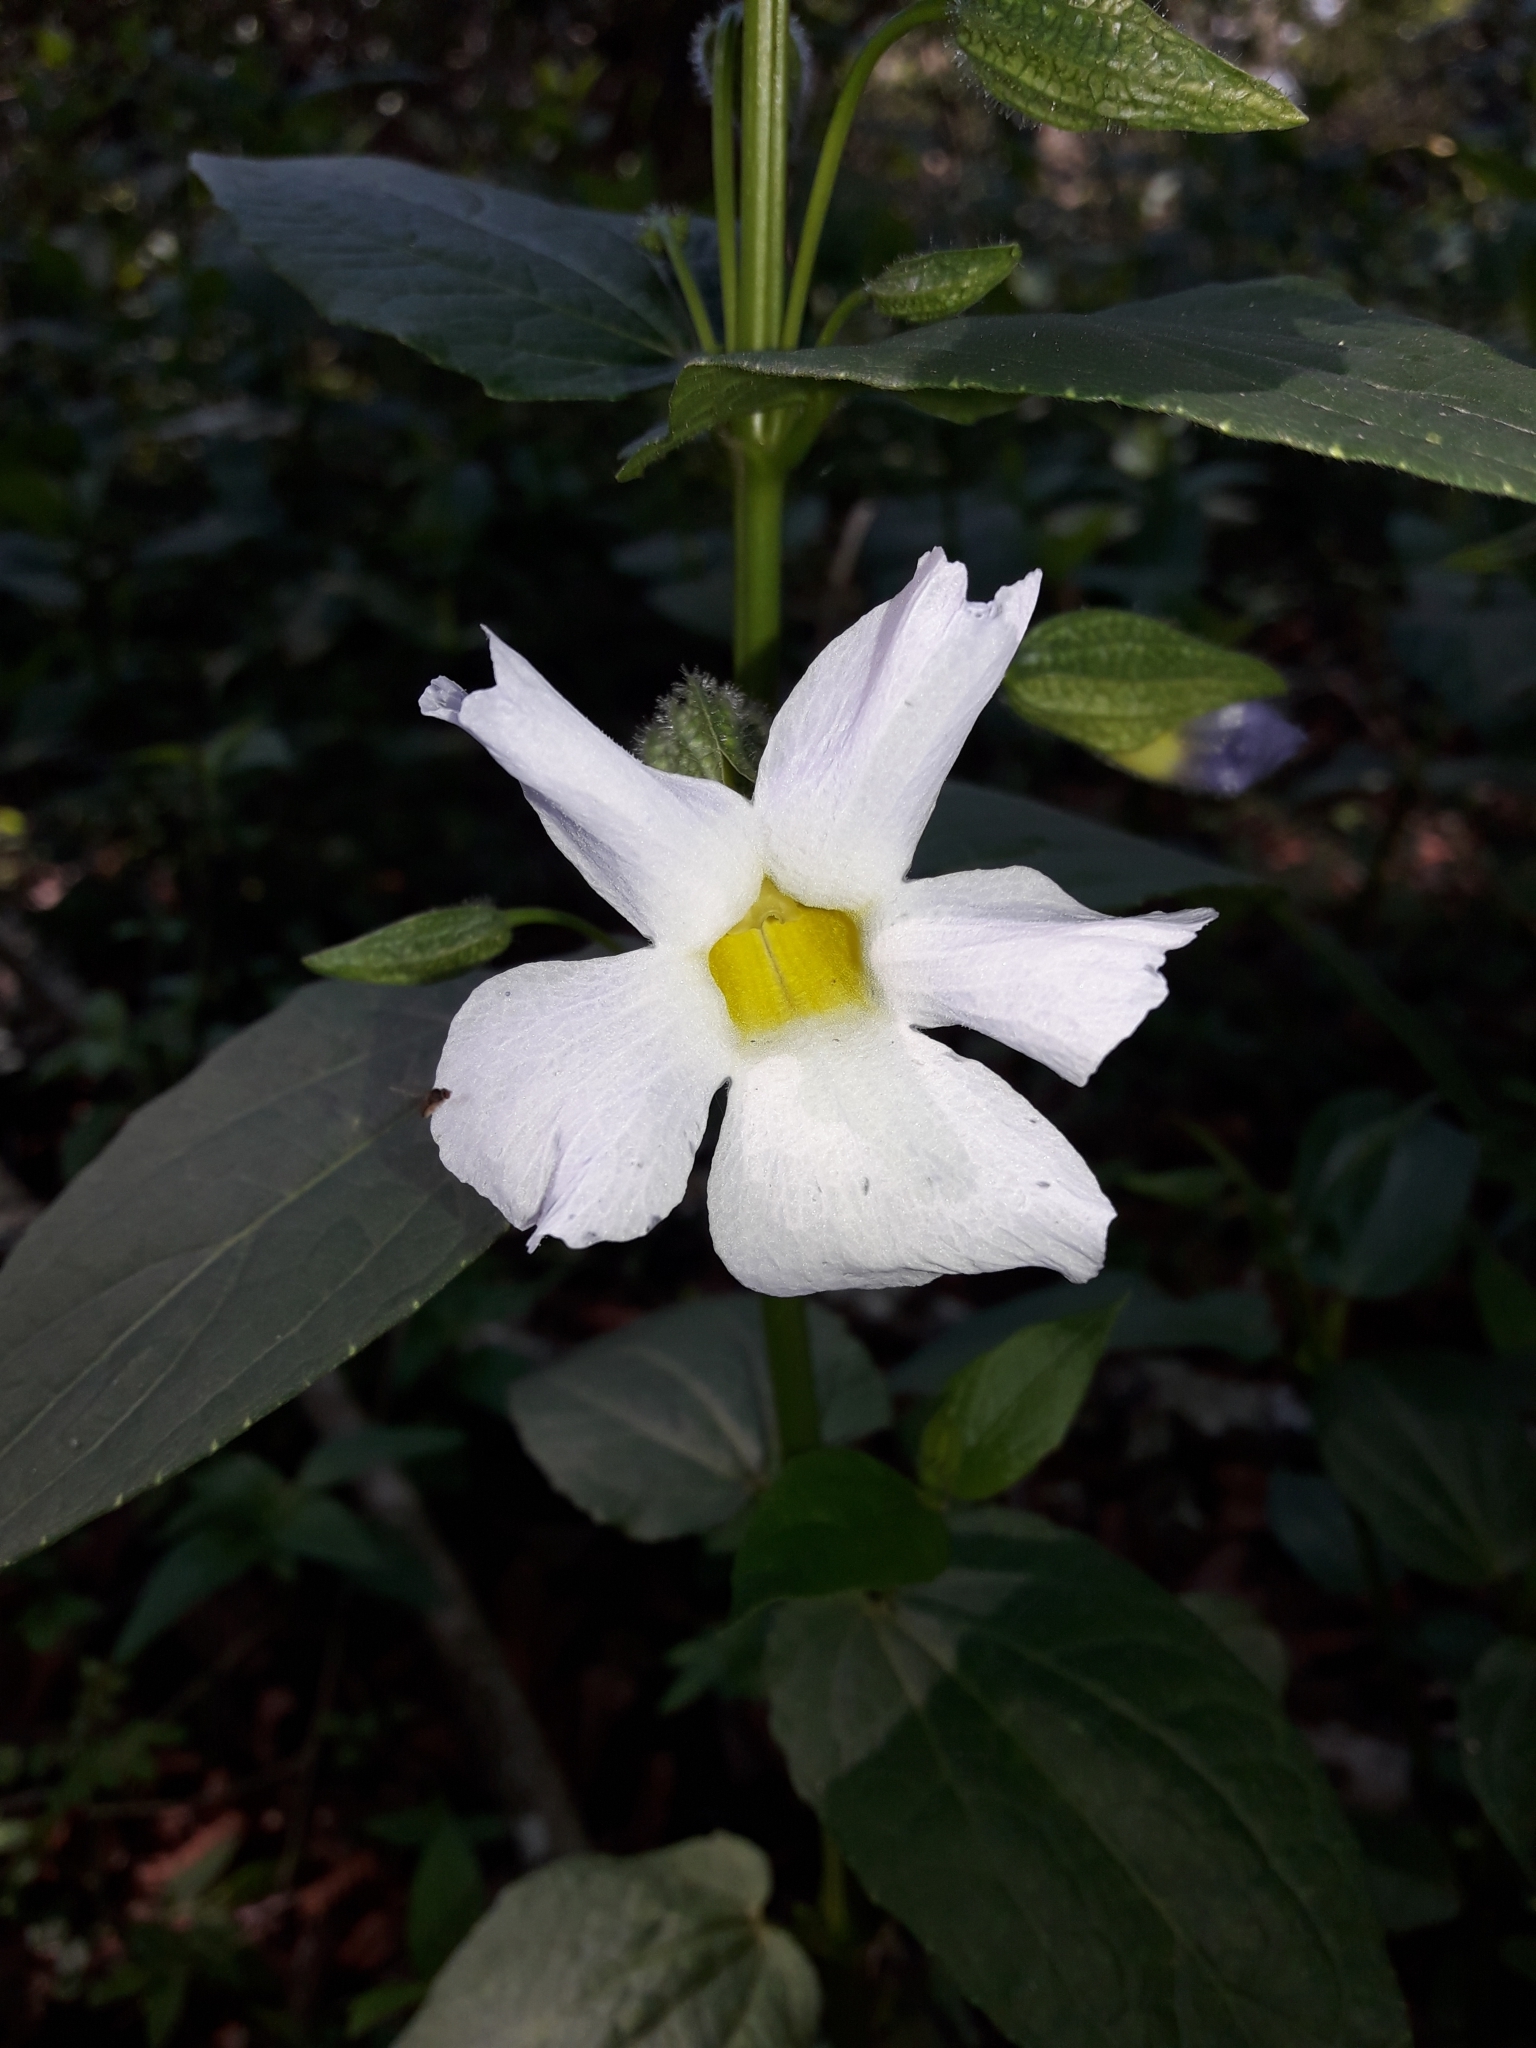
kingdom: Plantae
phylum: Tracheophyta
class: Magnoliopsida
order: Lamiales
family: Acanthaceae
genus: Thunbergia
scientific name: Thunbergia natalensis
